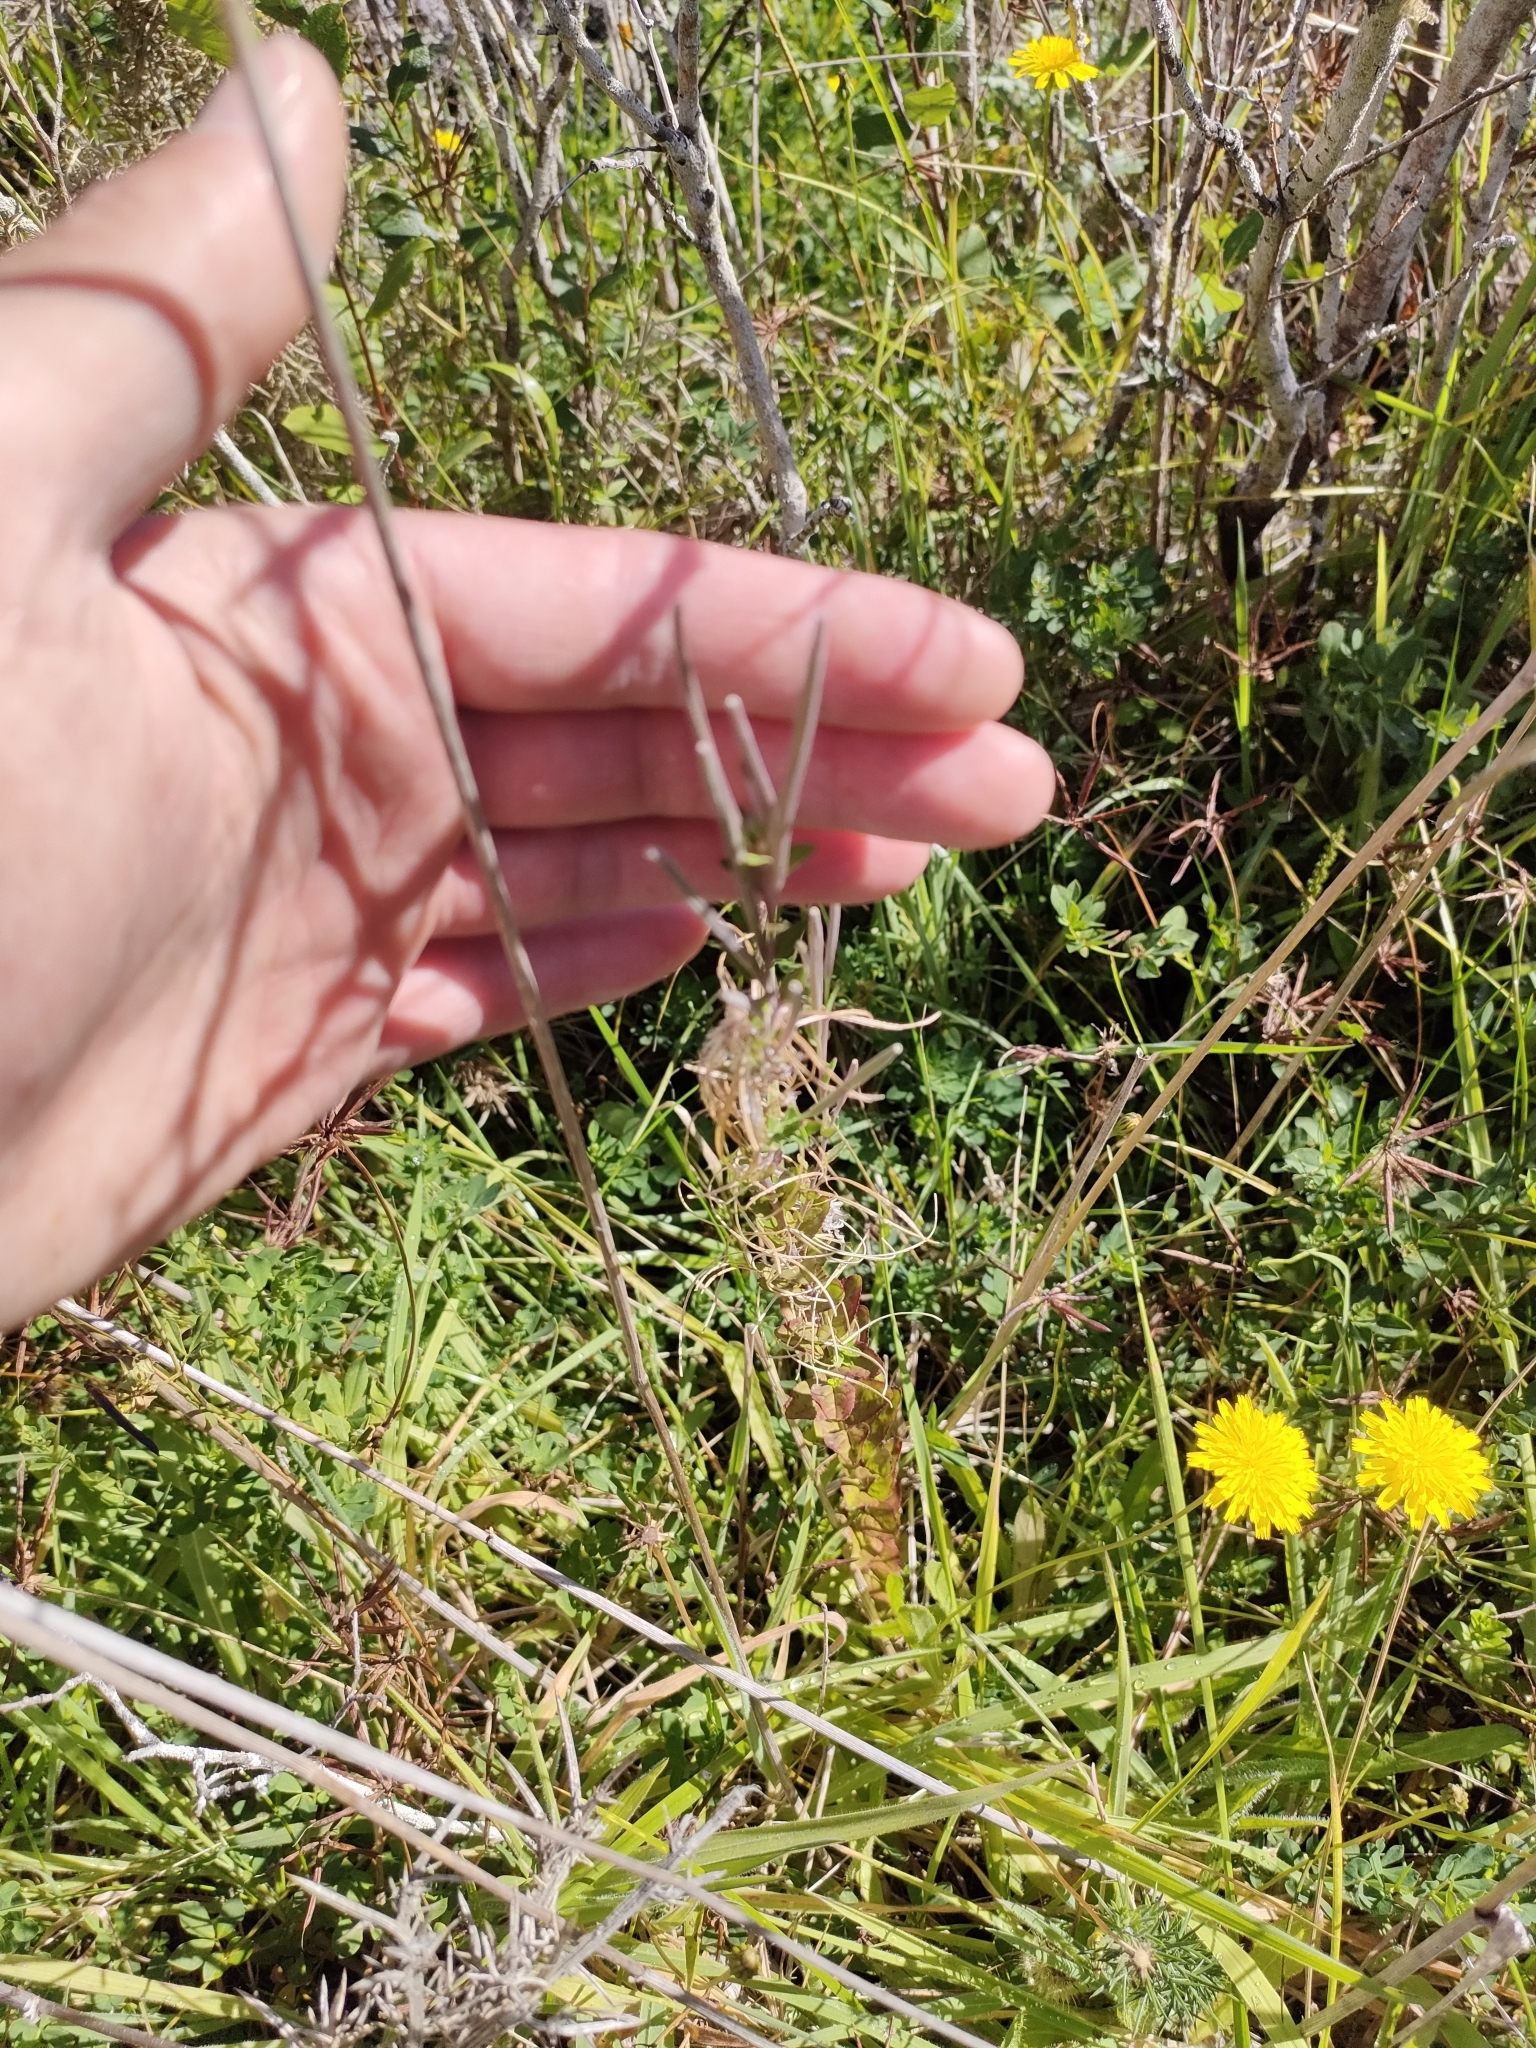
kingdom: Plantae
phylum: Tracheophyta
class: Magnoliopsida
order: Myrtales
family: Onagraceae
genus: Epilobium
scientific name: Epilobium billardierianum
